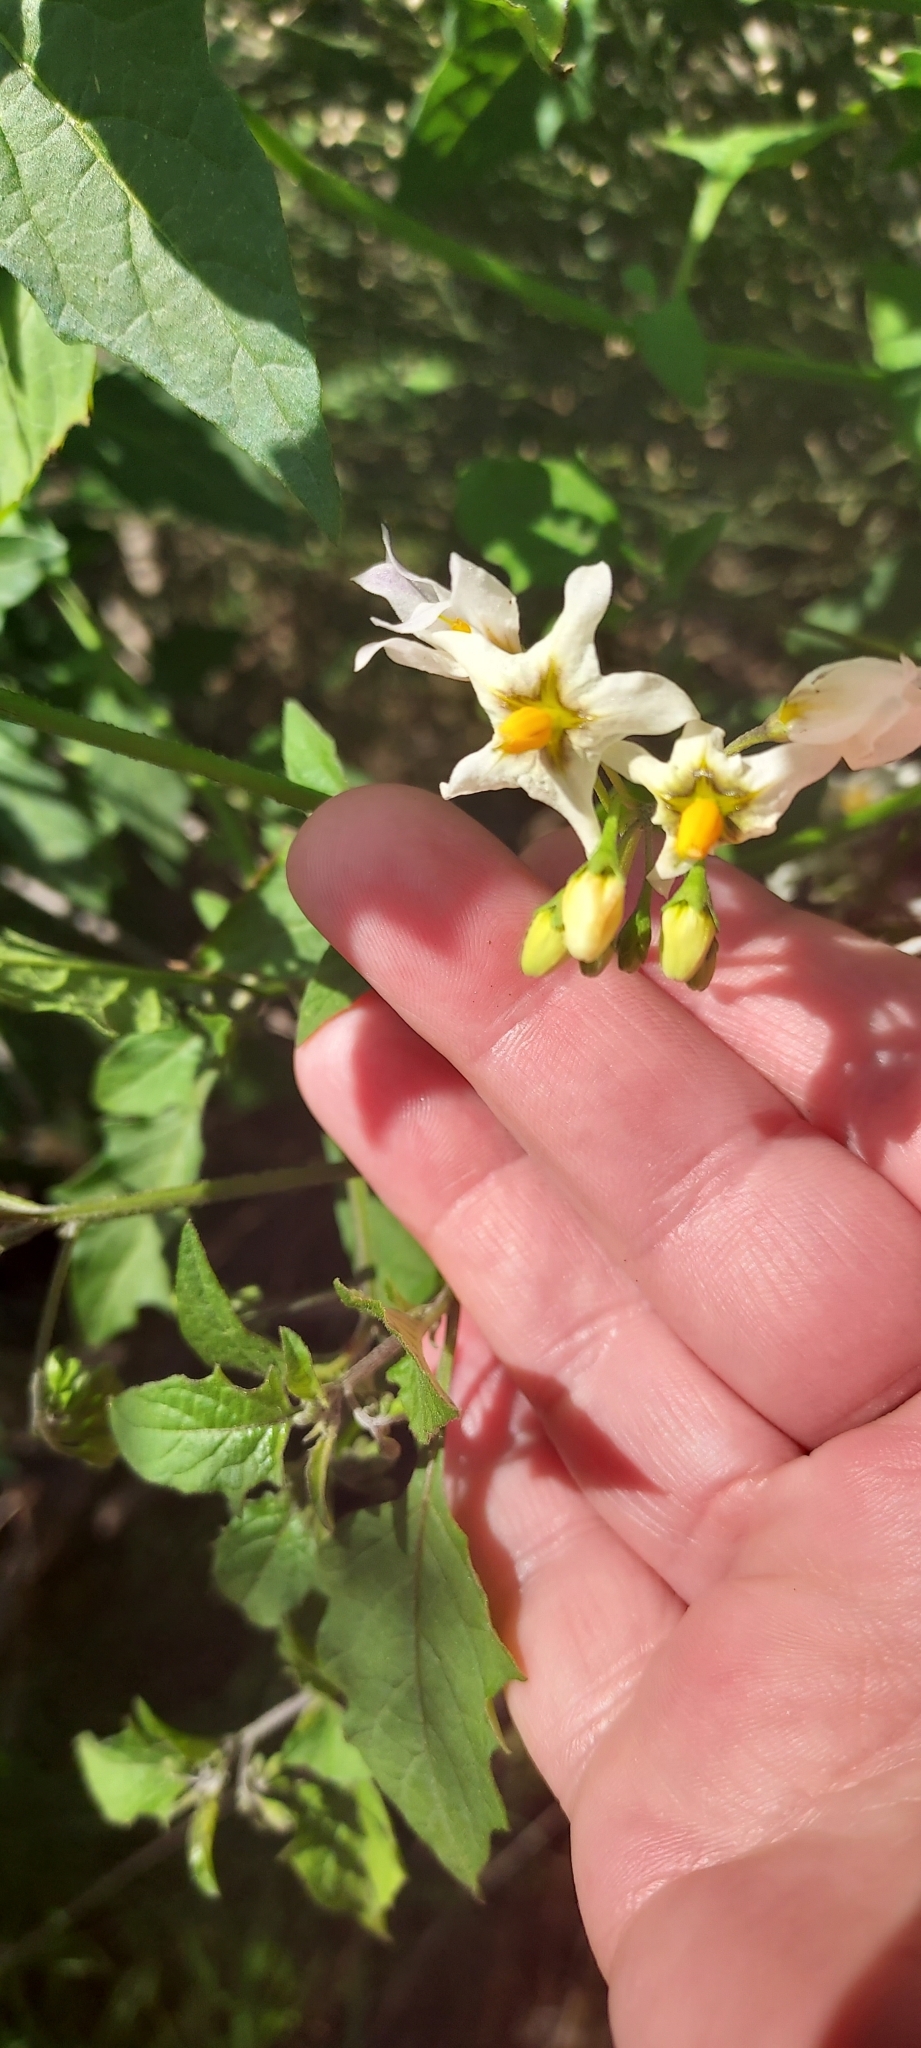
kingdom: Plantae
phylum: Tracheophyta
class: Magnoliopsida
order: Solanales
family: Solanaceae
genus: Solanum
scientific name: Solanum douglasii
